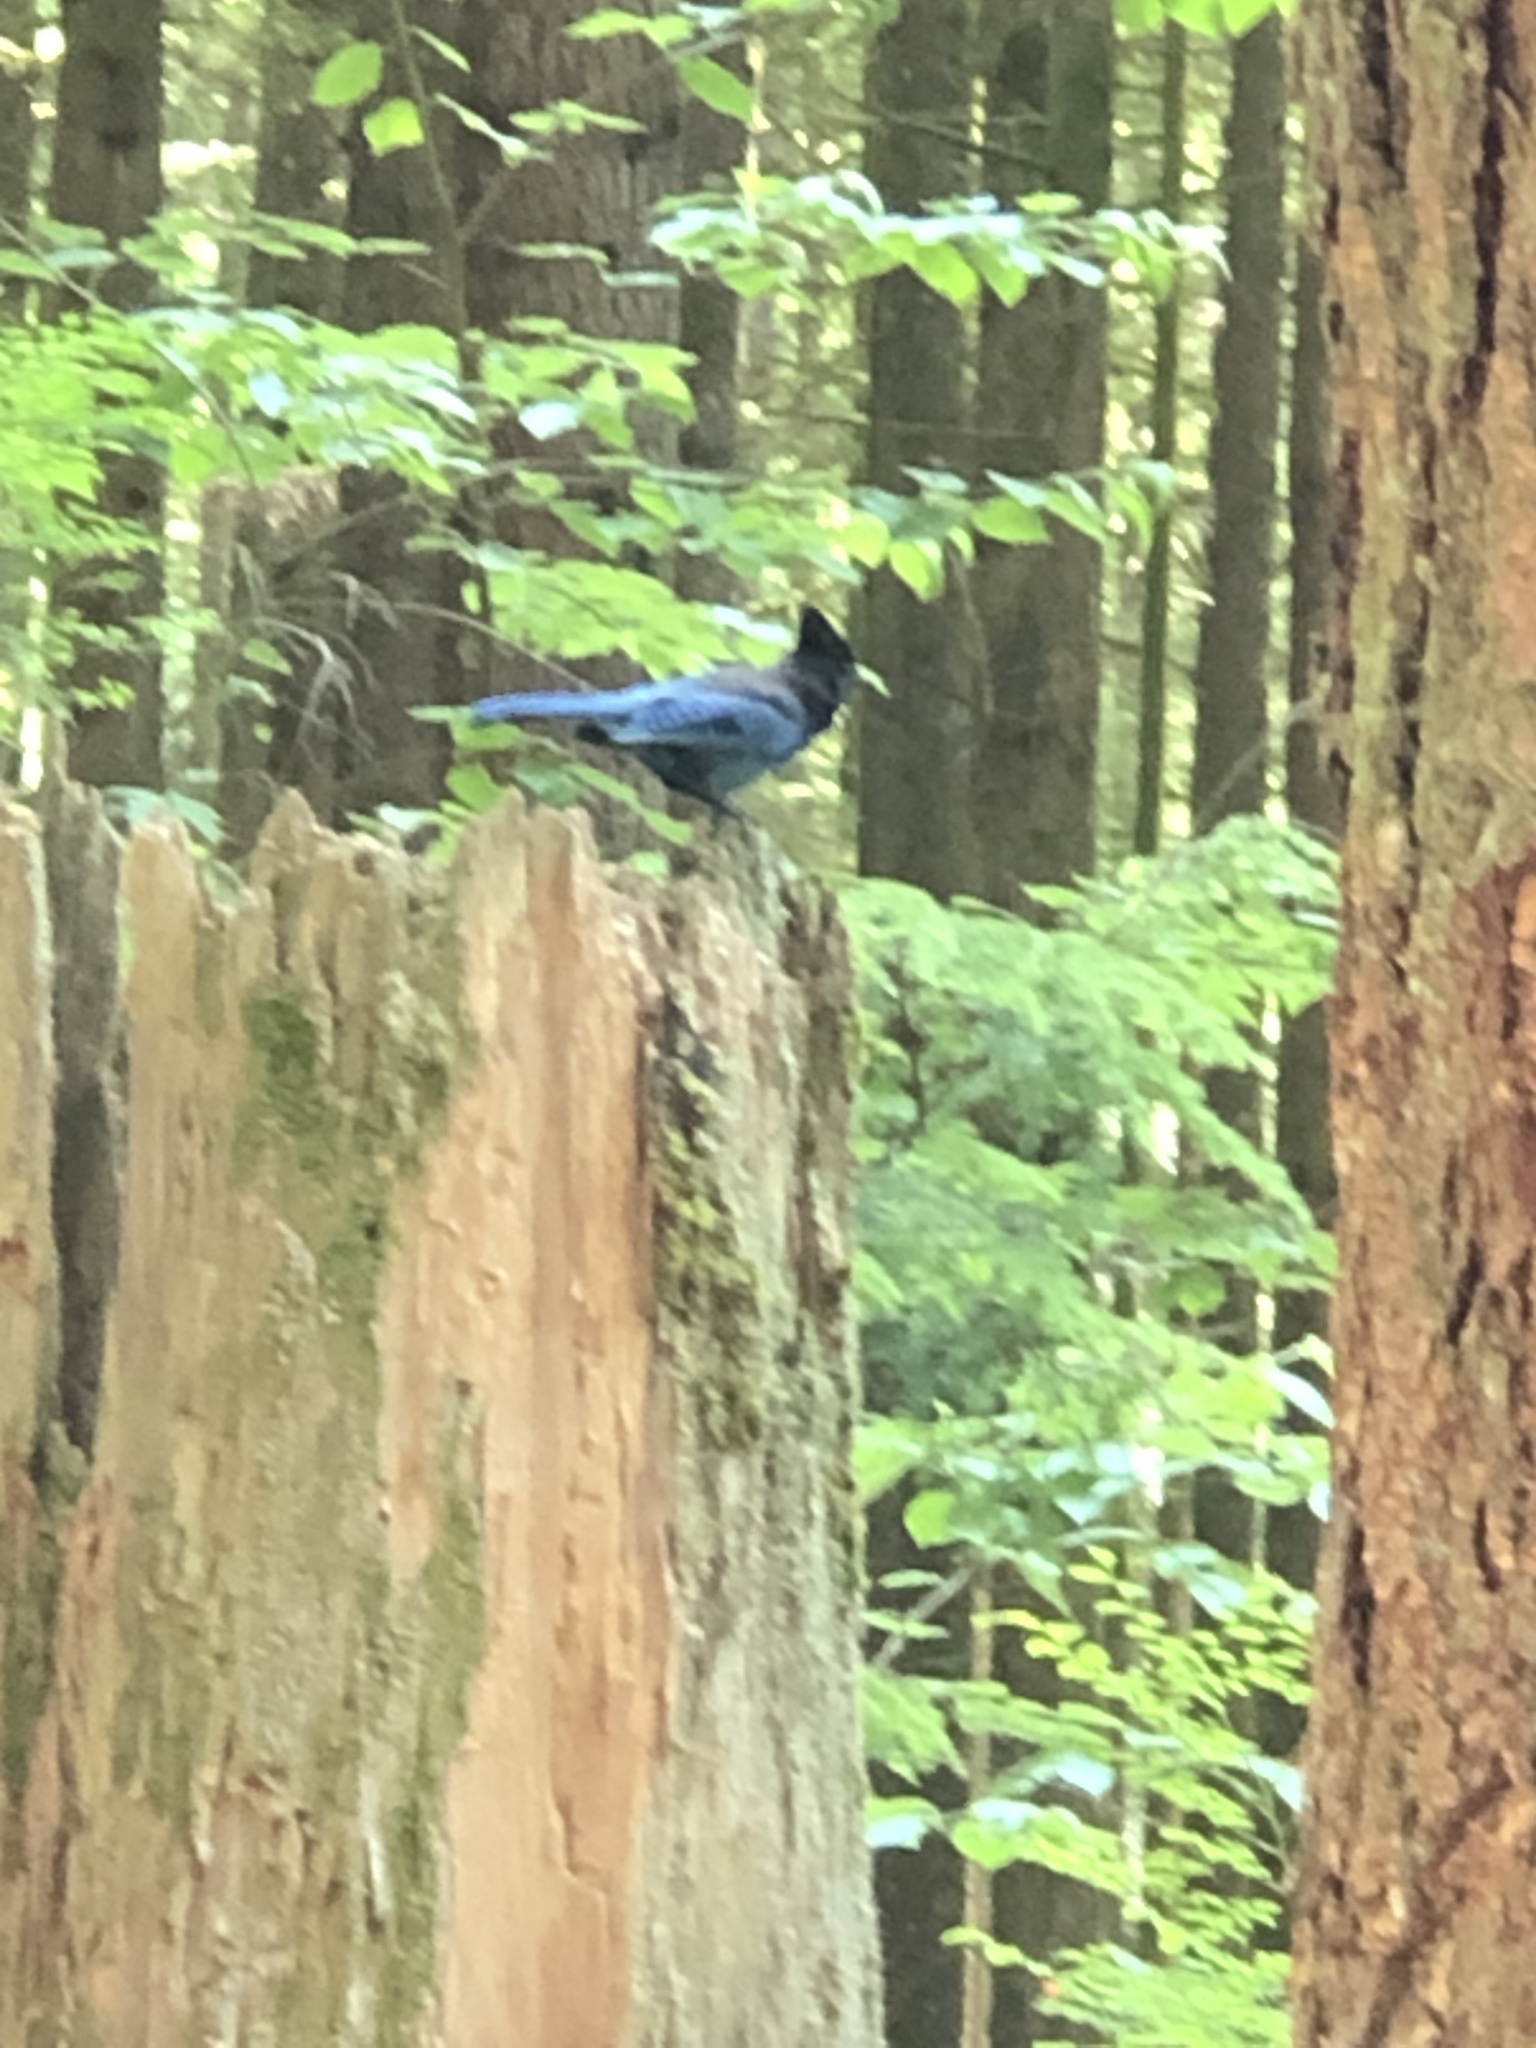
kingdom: Animalia
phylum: Chordata
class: Aves
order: Passeriformes
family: Corvidae
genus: Cyanocitta
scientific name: Cyanocitta stelleri
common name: Steller's jay
